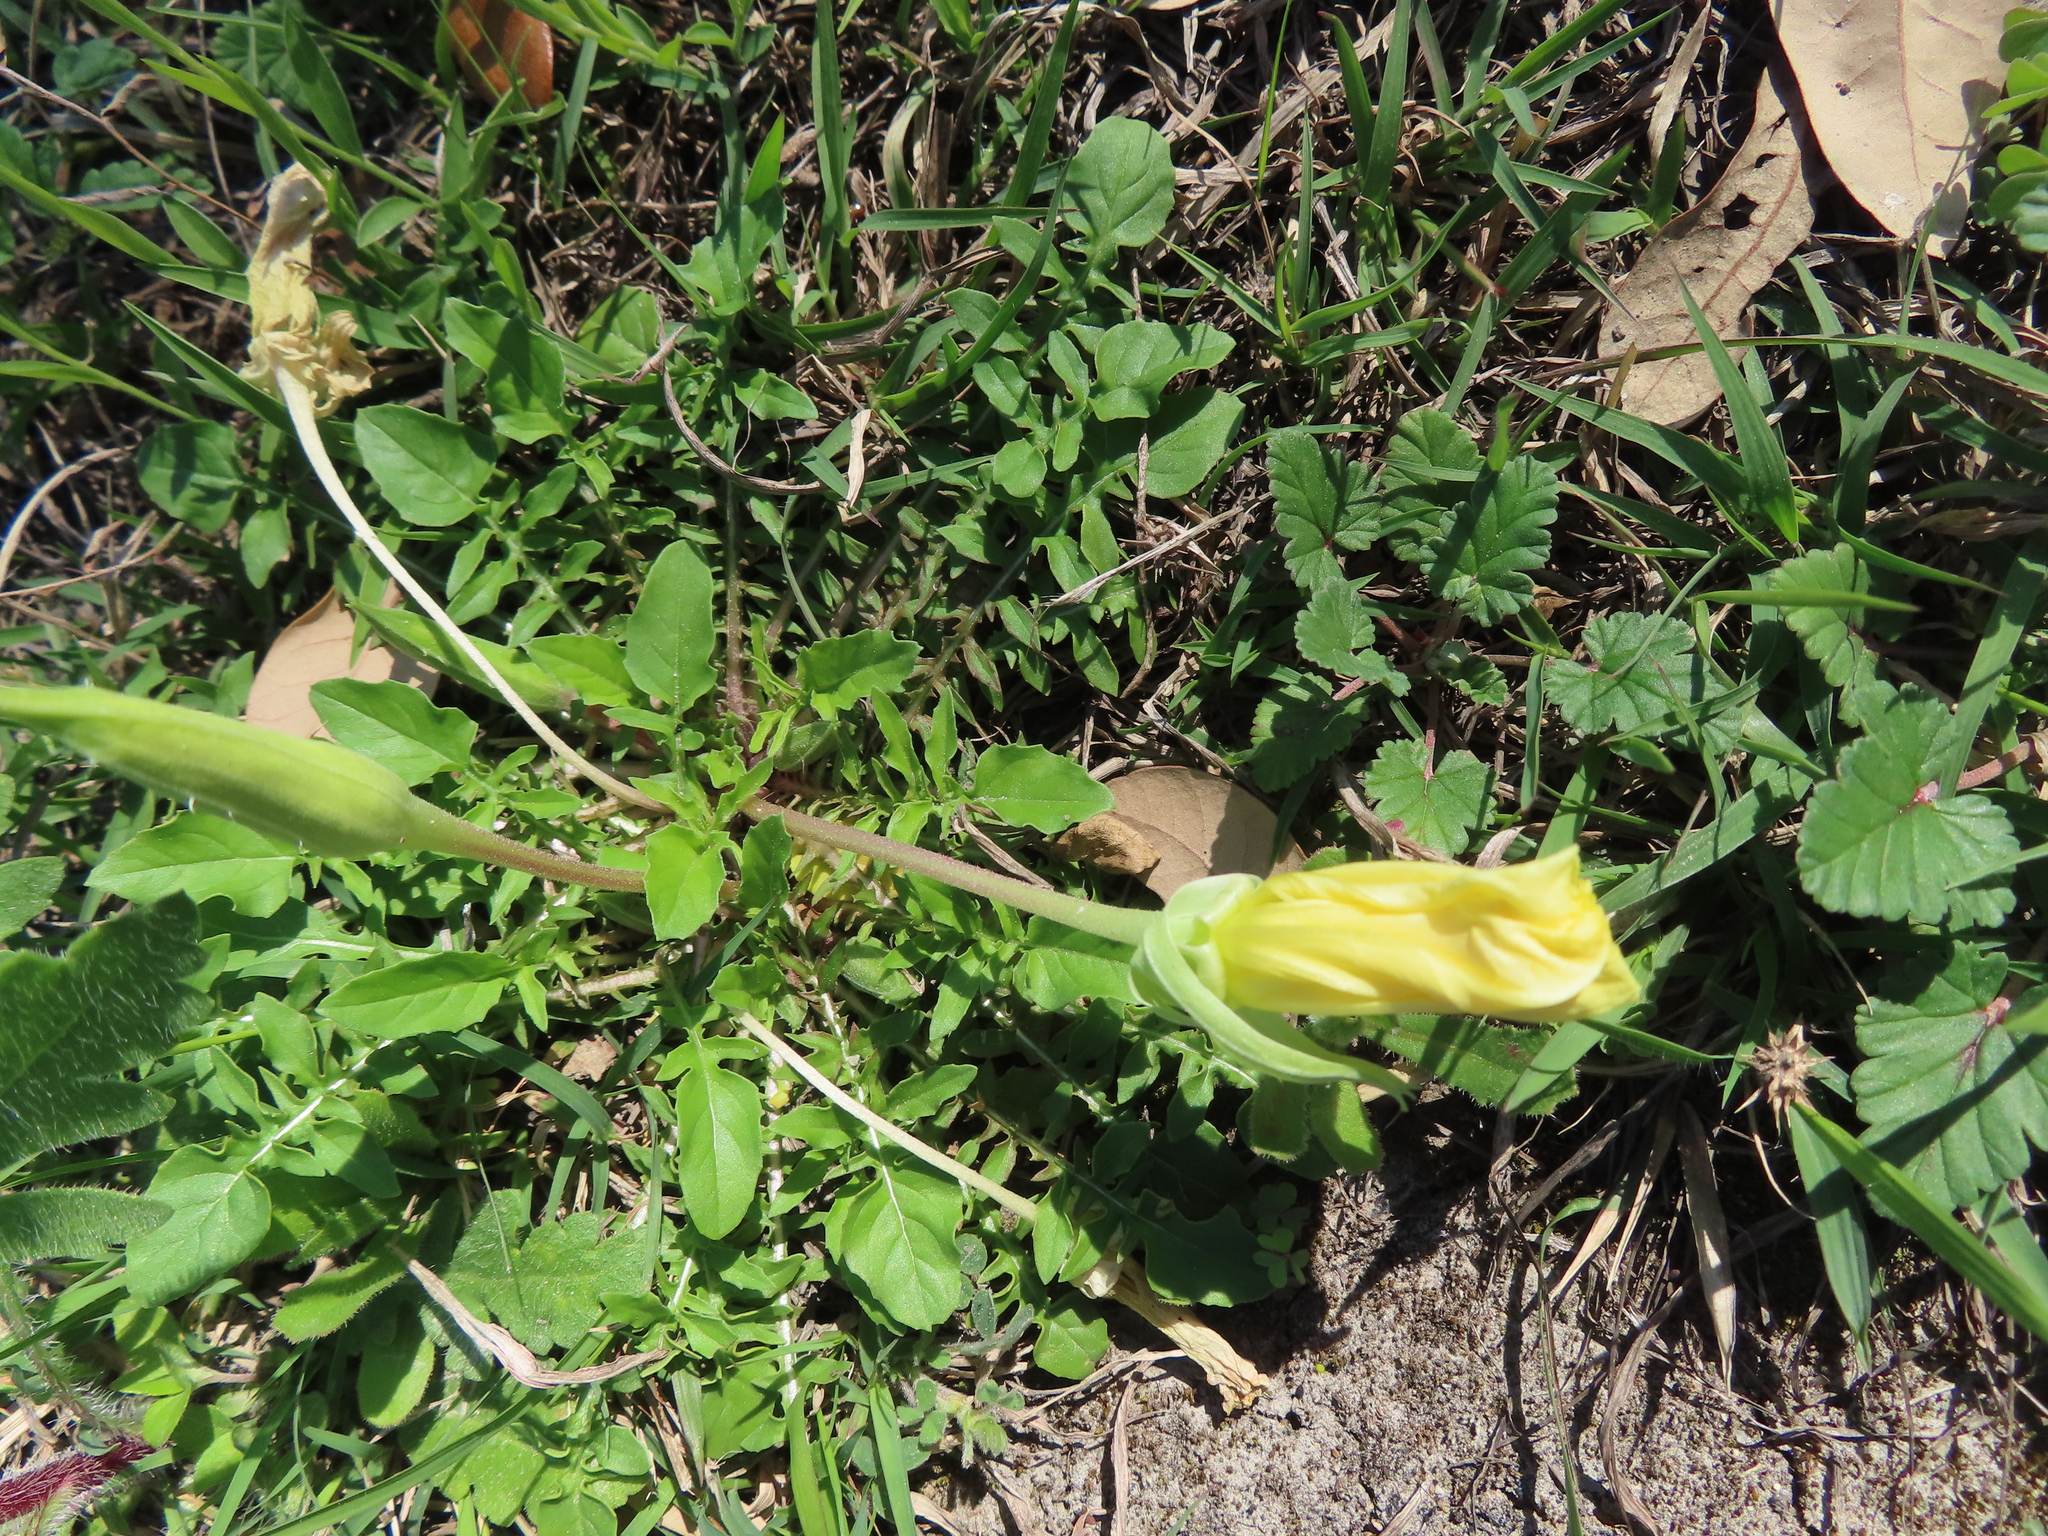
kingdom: Plantae
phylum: Tracheophyta
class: Magnoliopsida
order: Myrtales
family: Onagraceae
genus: Oenothera
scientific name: Oenothera triloba
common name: Sessile evening-primrose
